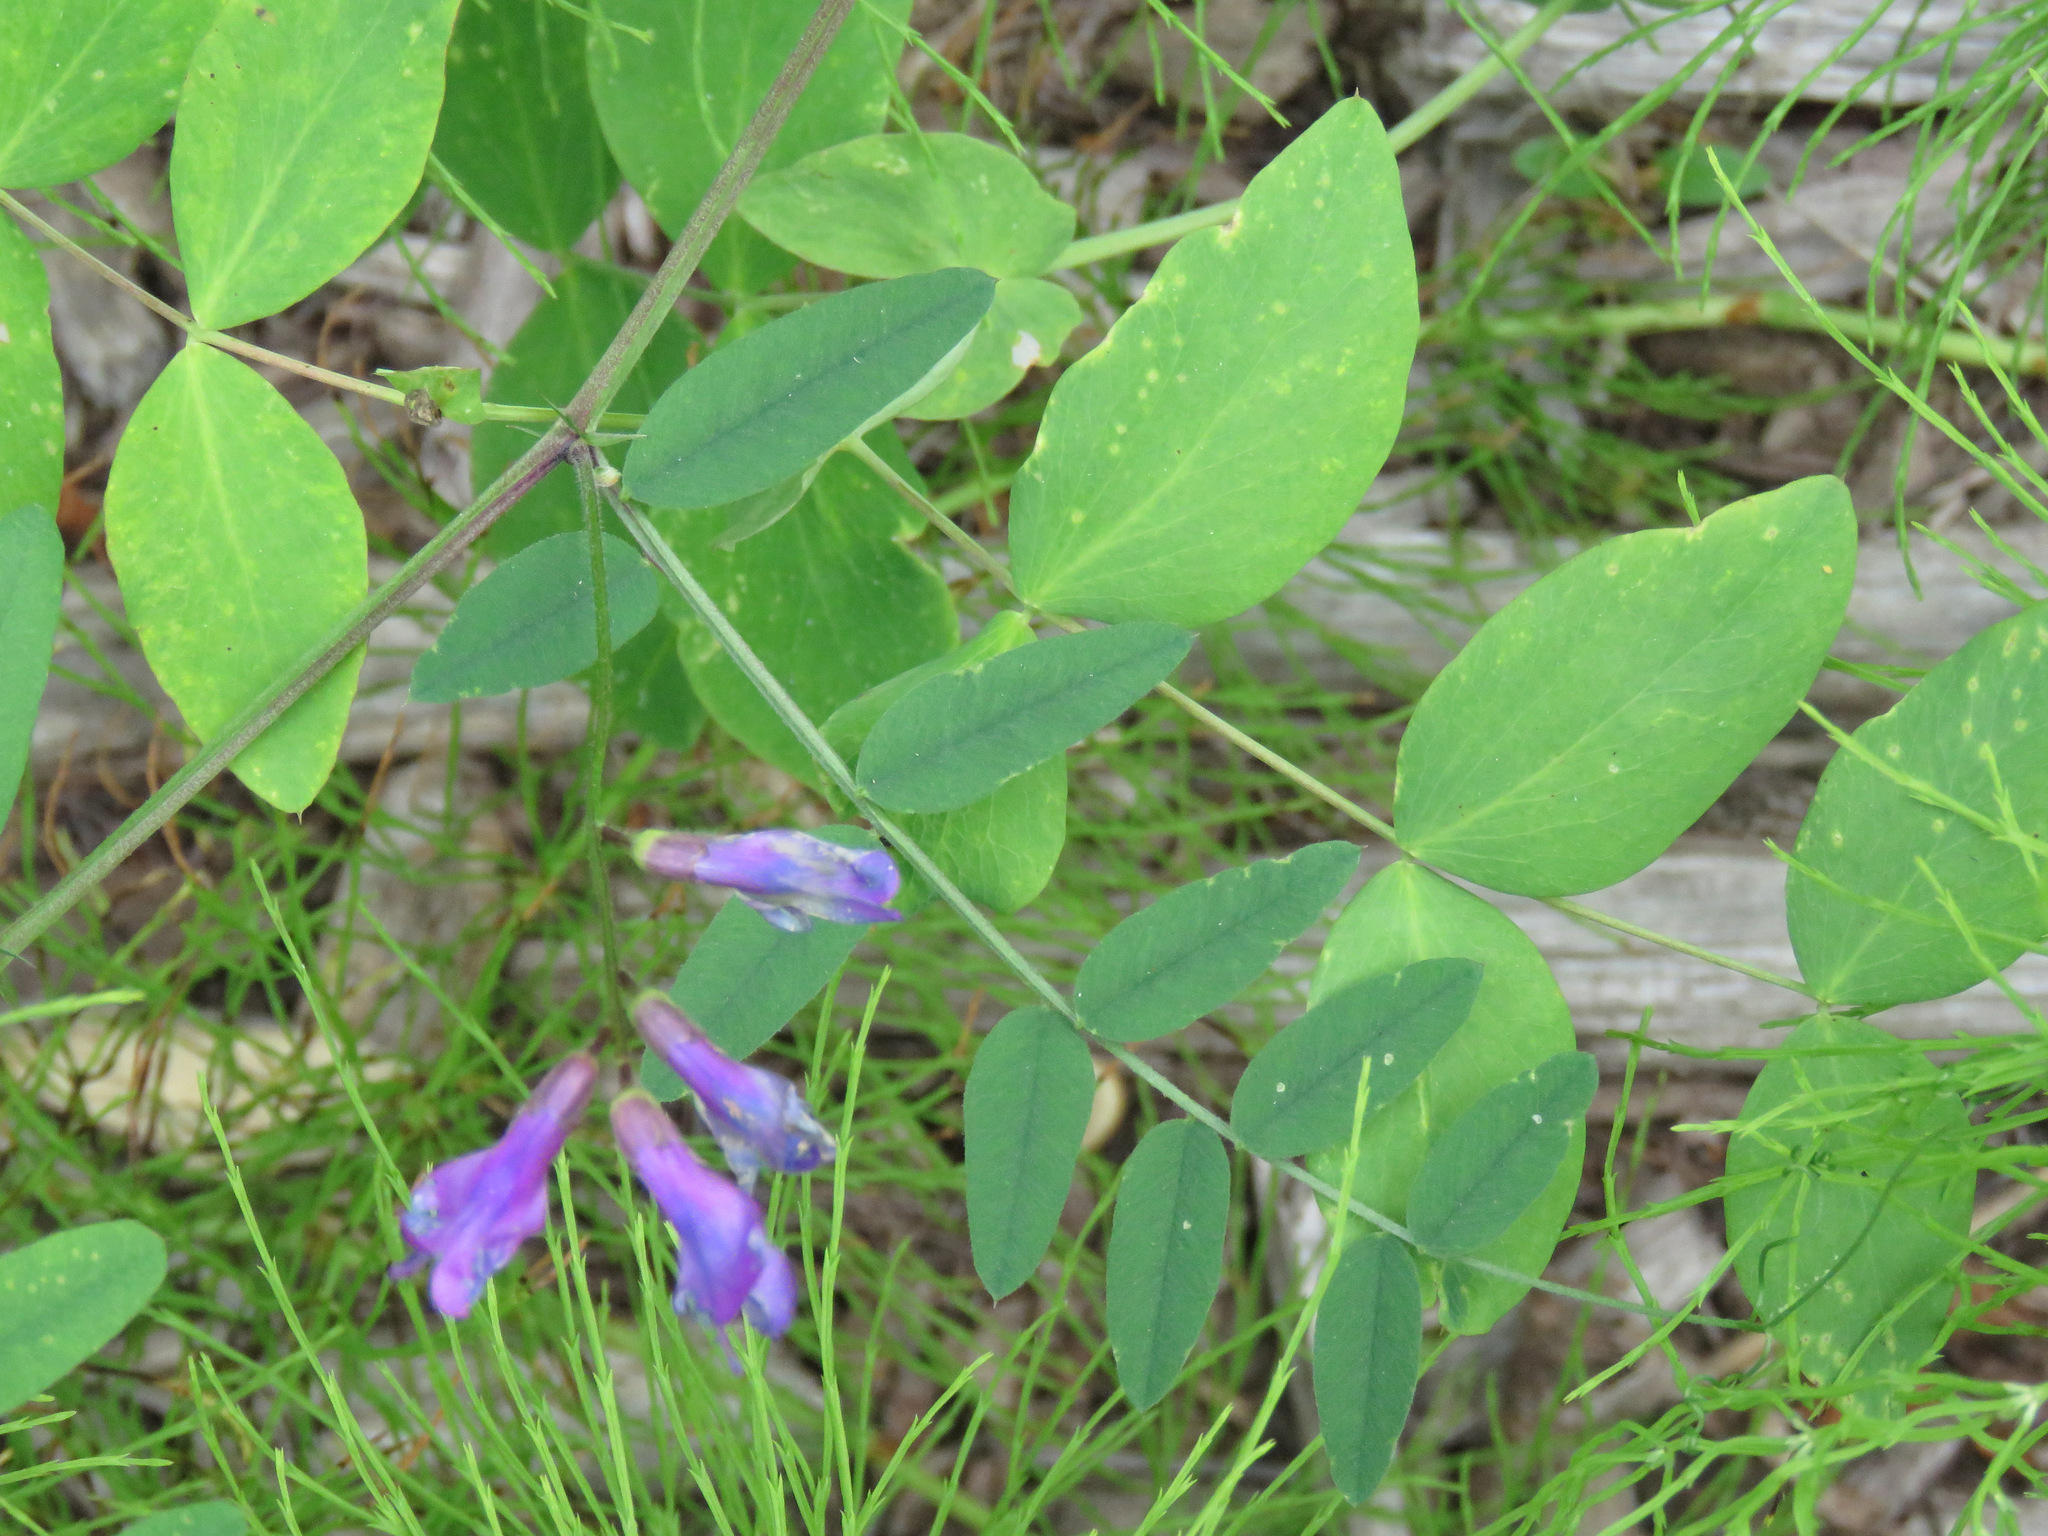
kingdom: Plantae
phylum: Tracheophyta
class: Magnoliopsida
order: Fabales
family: Fabaceae
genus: Vicia
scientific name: Vicia americana
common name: American vetch
